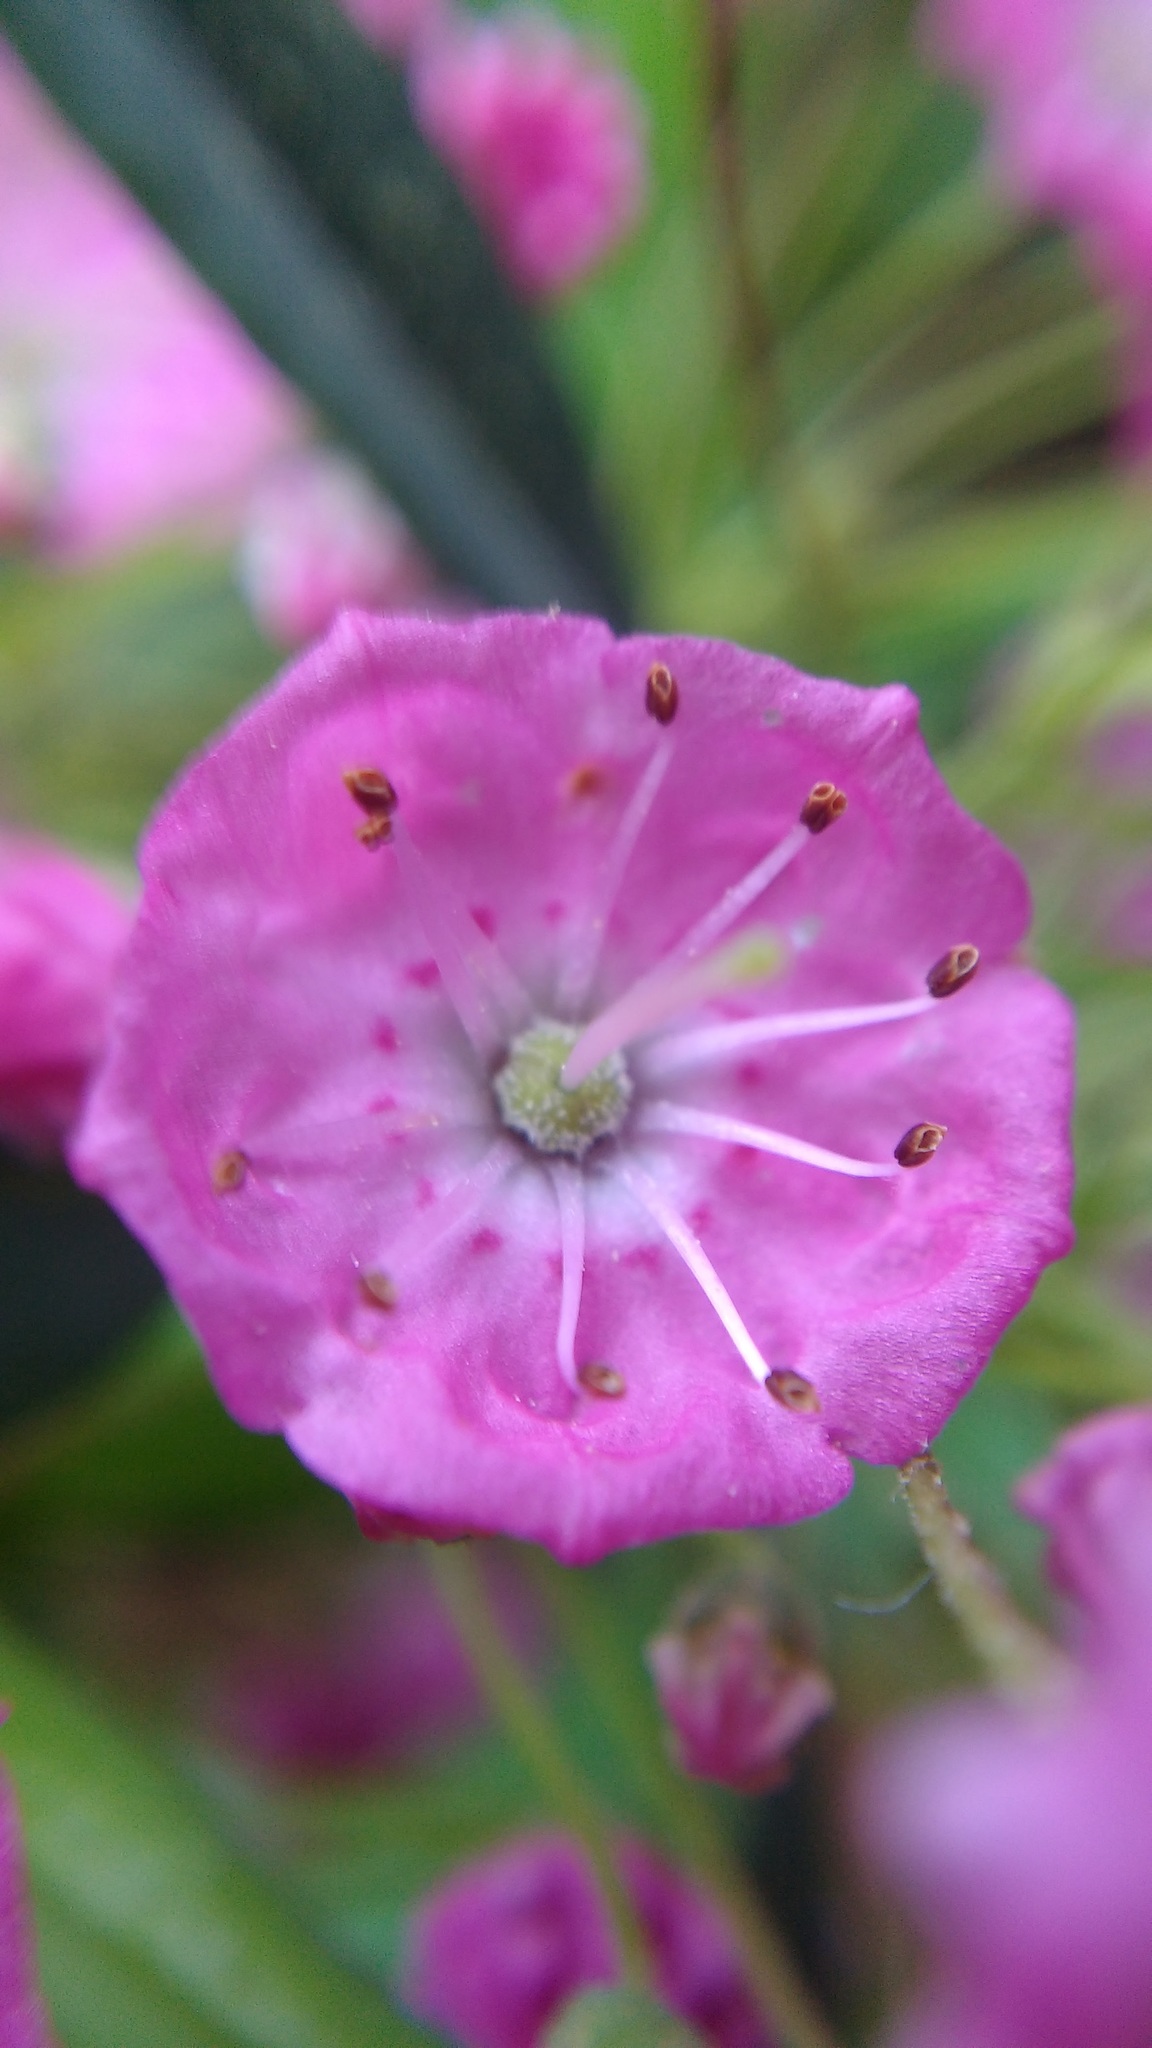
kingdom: Plantae
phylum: Tracheophyta
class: Magnoliopsida
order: Ericales
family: Ericaceae
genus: Kalmia
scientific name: Kalmia angustifolia
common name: Sheep-laurel
